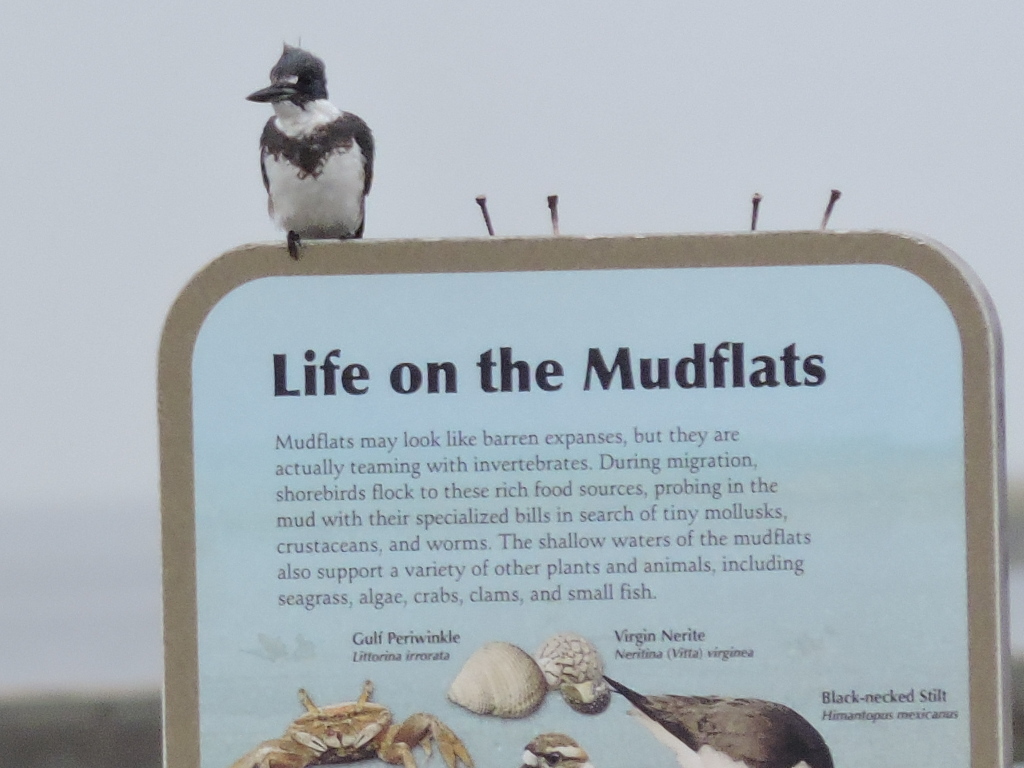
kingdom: Animalia
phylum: Chordata
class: Aves
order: Coraciiformes
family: Alcedinidae
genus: Megaceryle
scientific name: Megaceryle alcyon
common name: Belted kingfisher
